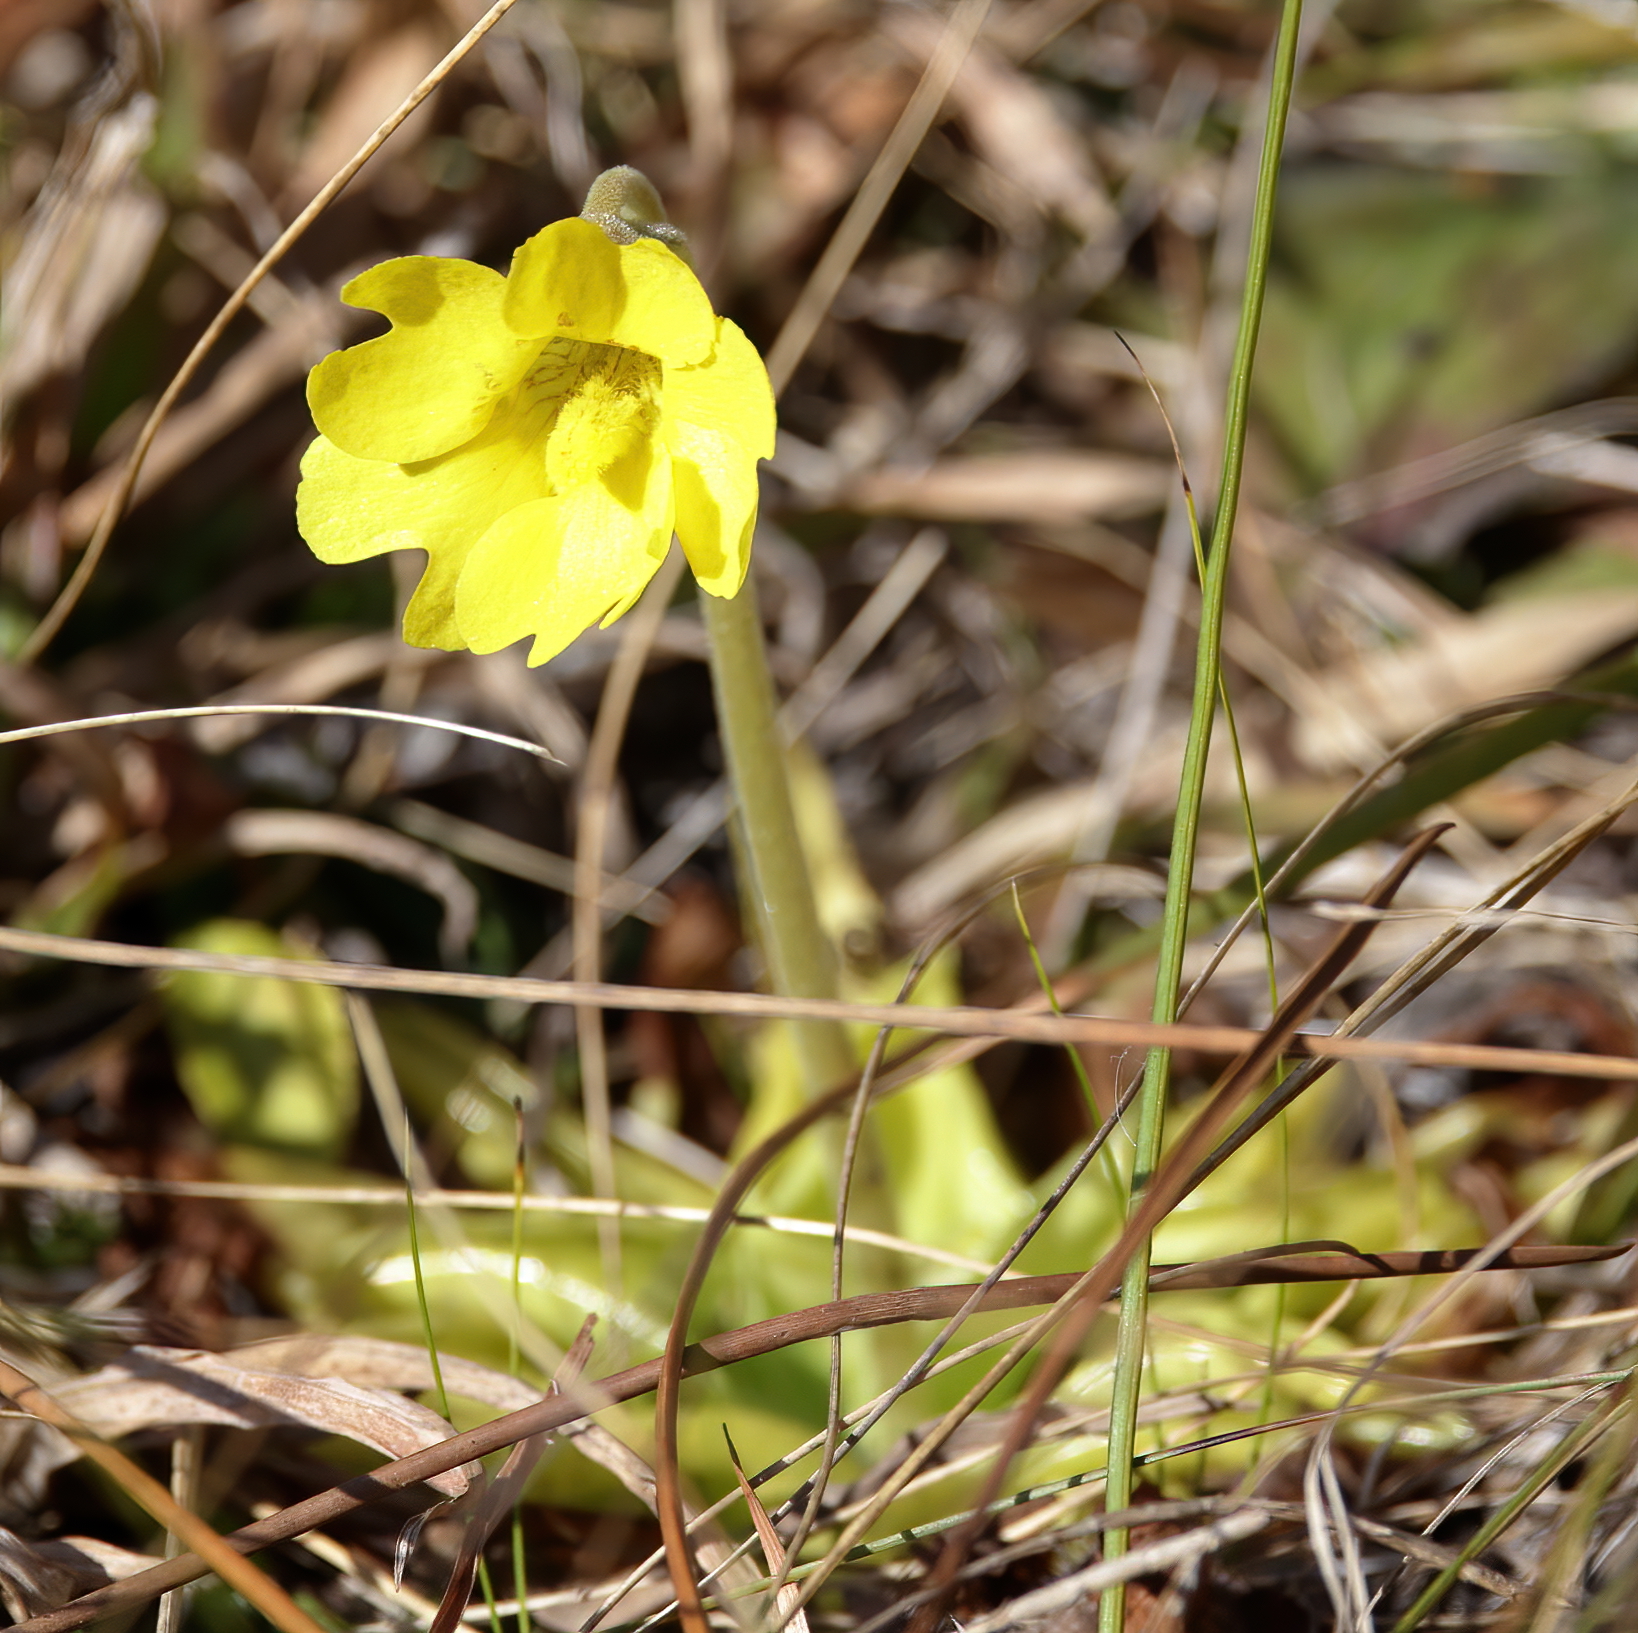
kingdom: Plantae
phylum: Tracheophyta
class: Magnoliopsida
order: Lamiales
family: Lentibulariaceae
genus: Pinguicula
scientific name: Pinguicula lutea
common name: Yellow butterwort
